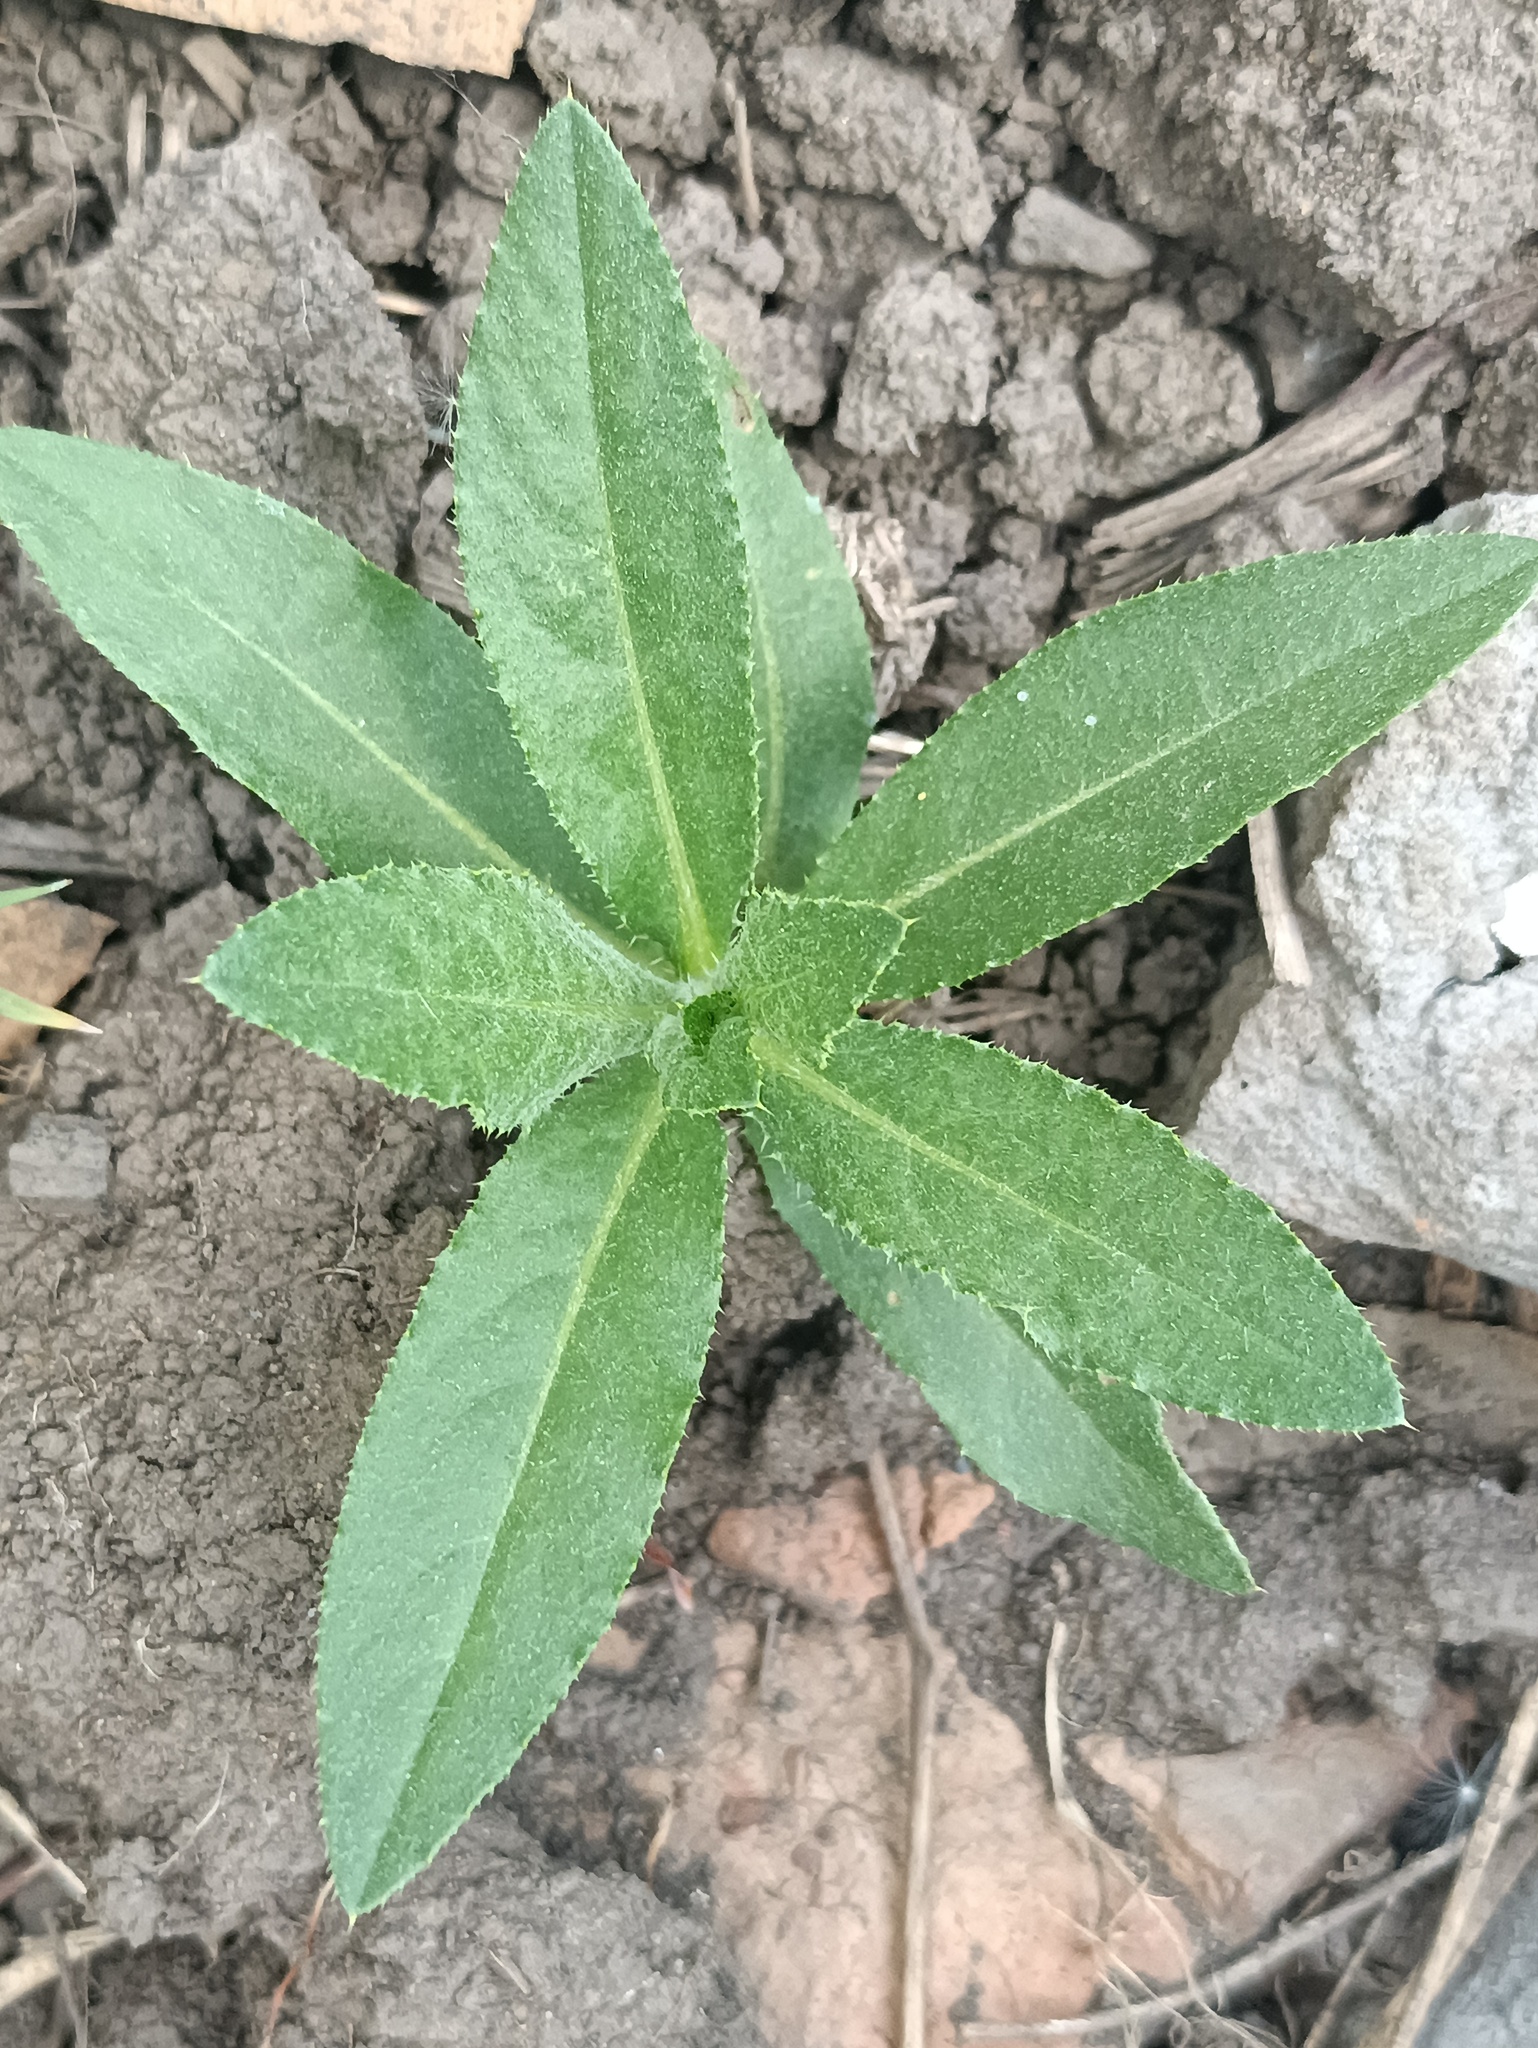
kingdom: Plantae
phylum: Tracheophyta
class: Magnoliopsida
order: Asterales
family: Asteraceae
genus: Cirsium
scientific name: Cirsium arvense
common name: Creeping thistle
